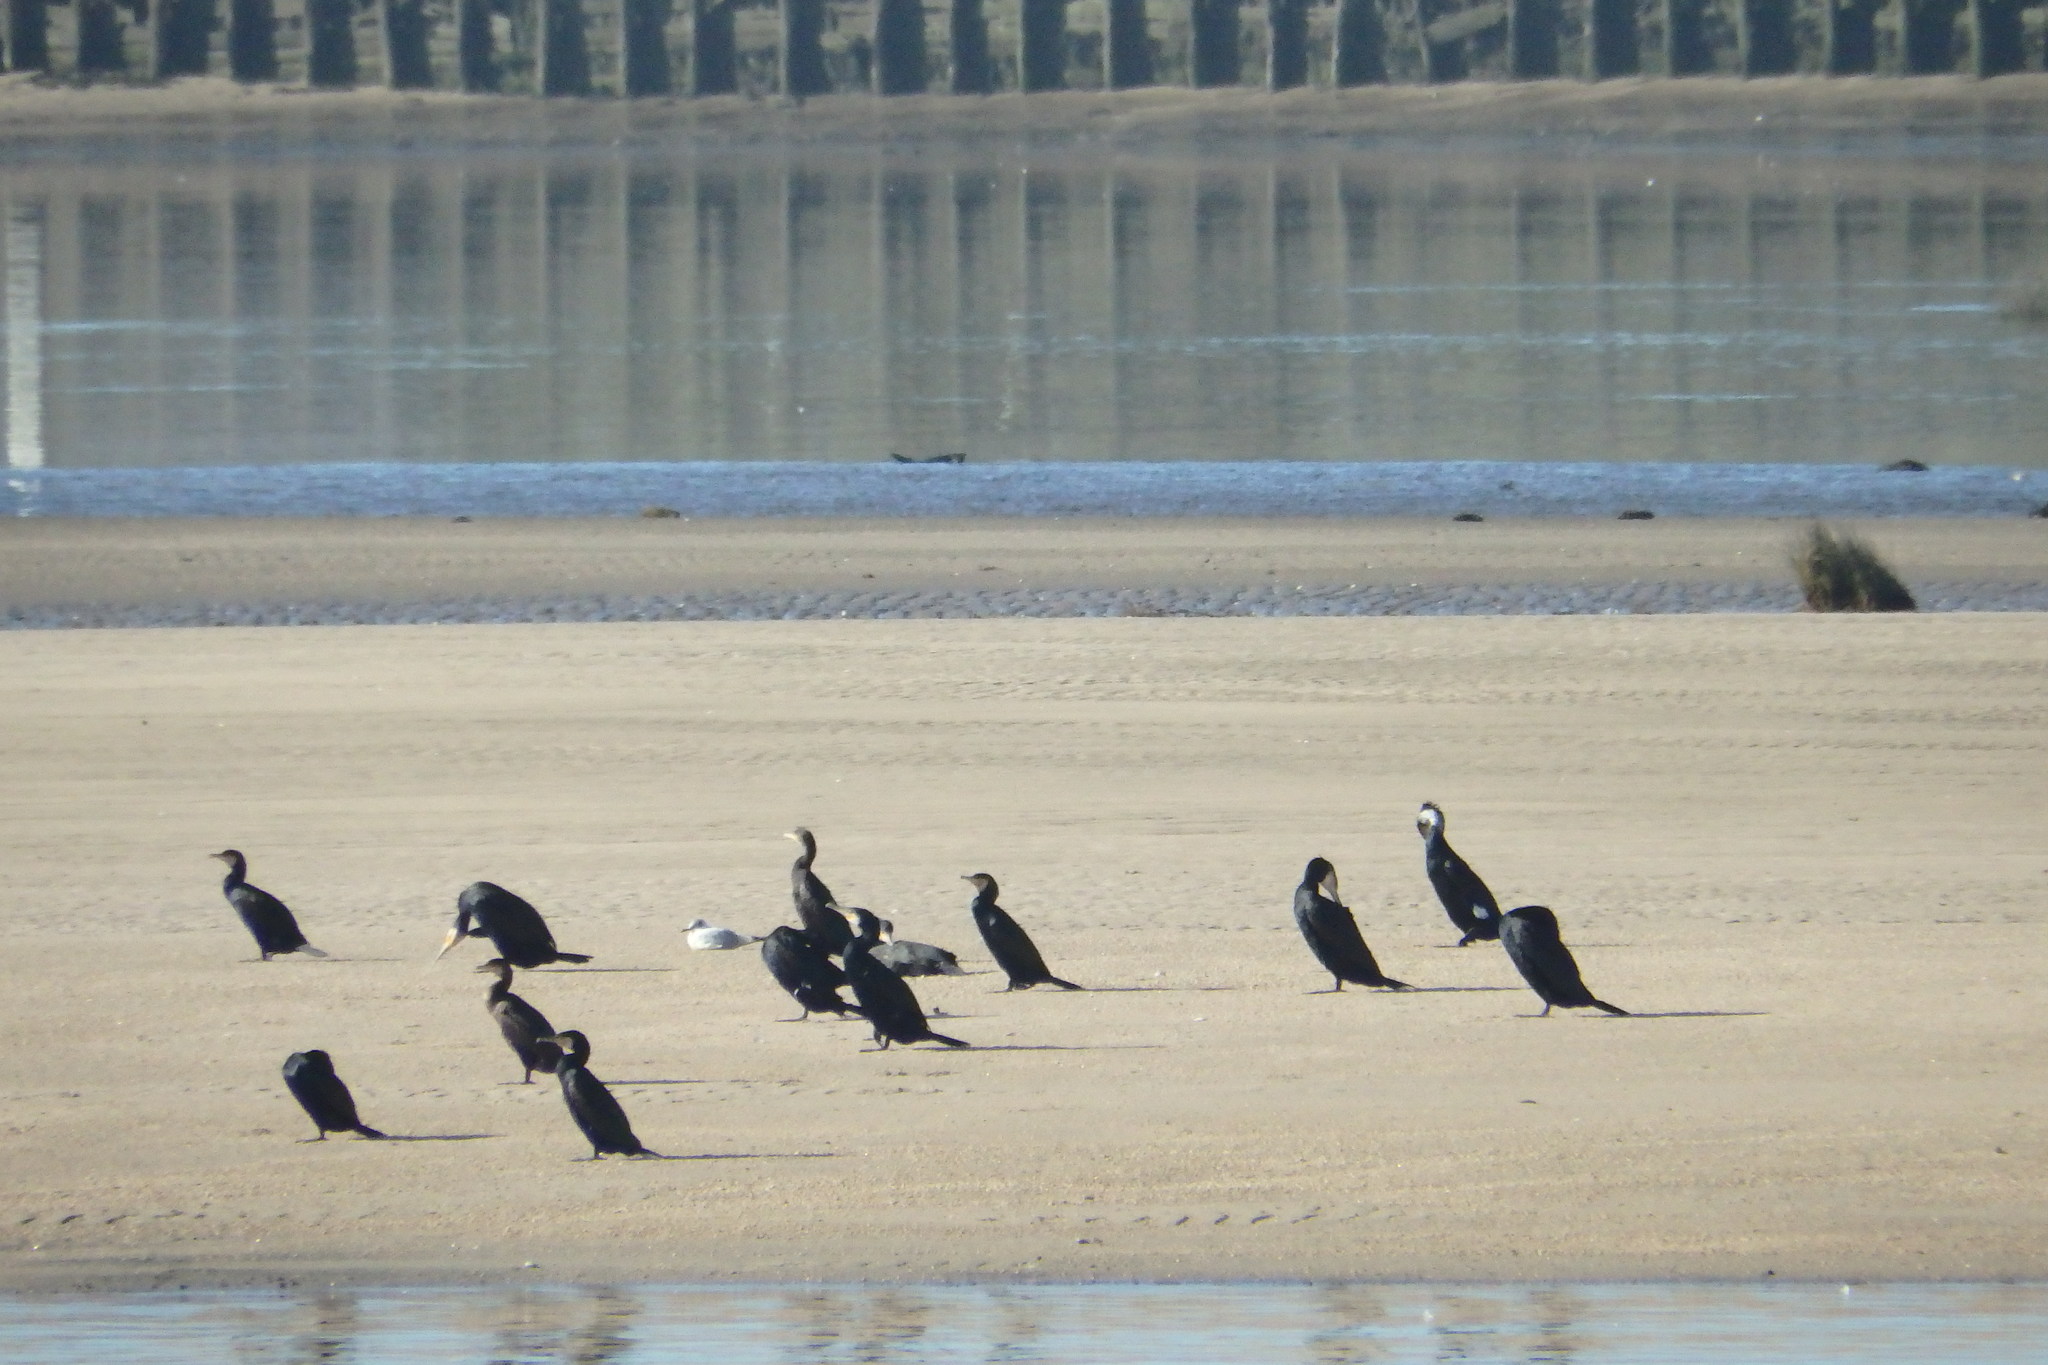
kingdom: Animalia
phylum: Chordata
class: Aves
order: Suliformes
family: Phalacrocoracidae
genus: Phalacrocorax
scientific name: Phalacrocorax carbo
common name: Great cormorant
